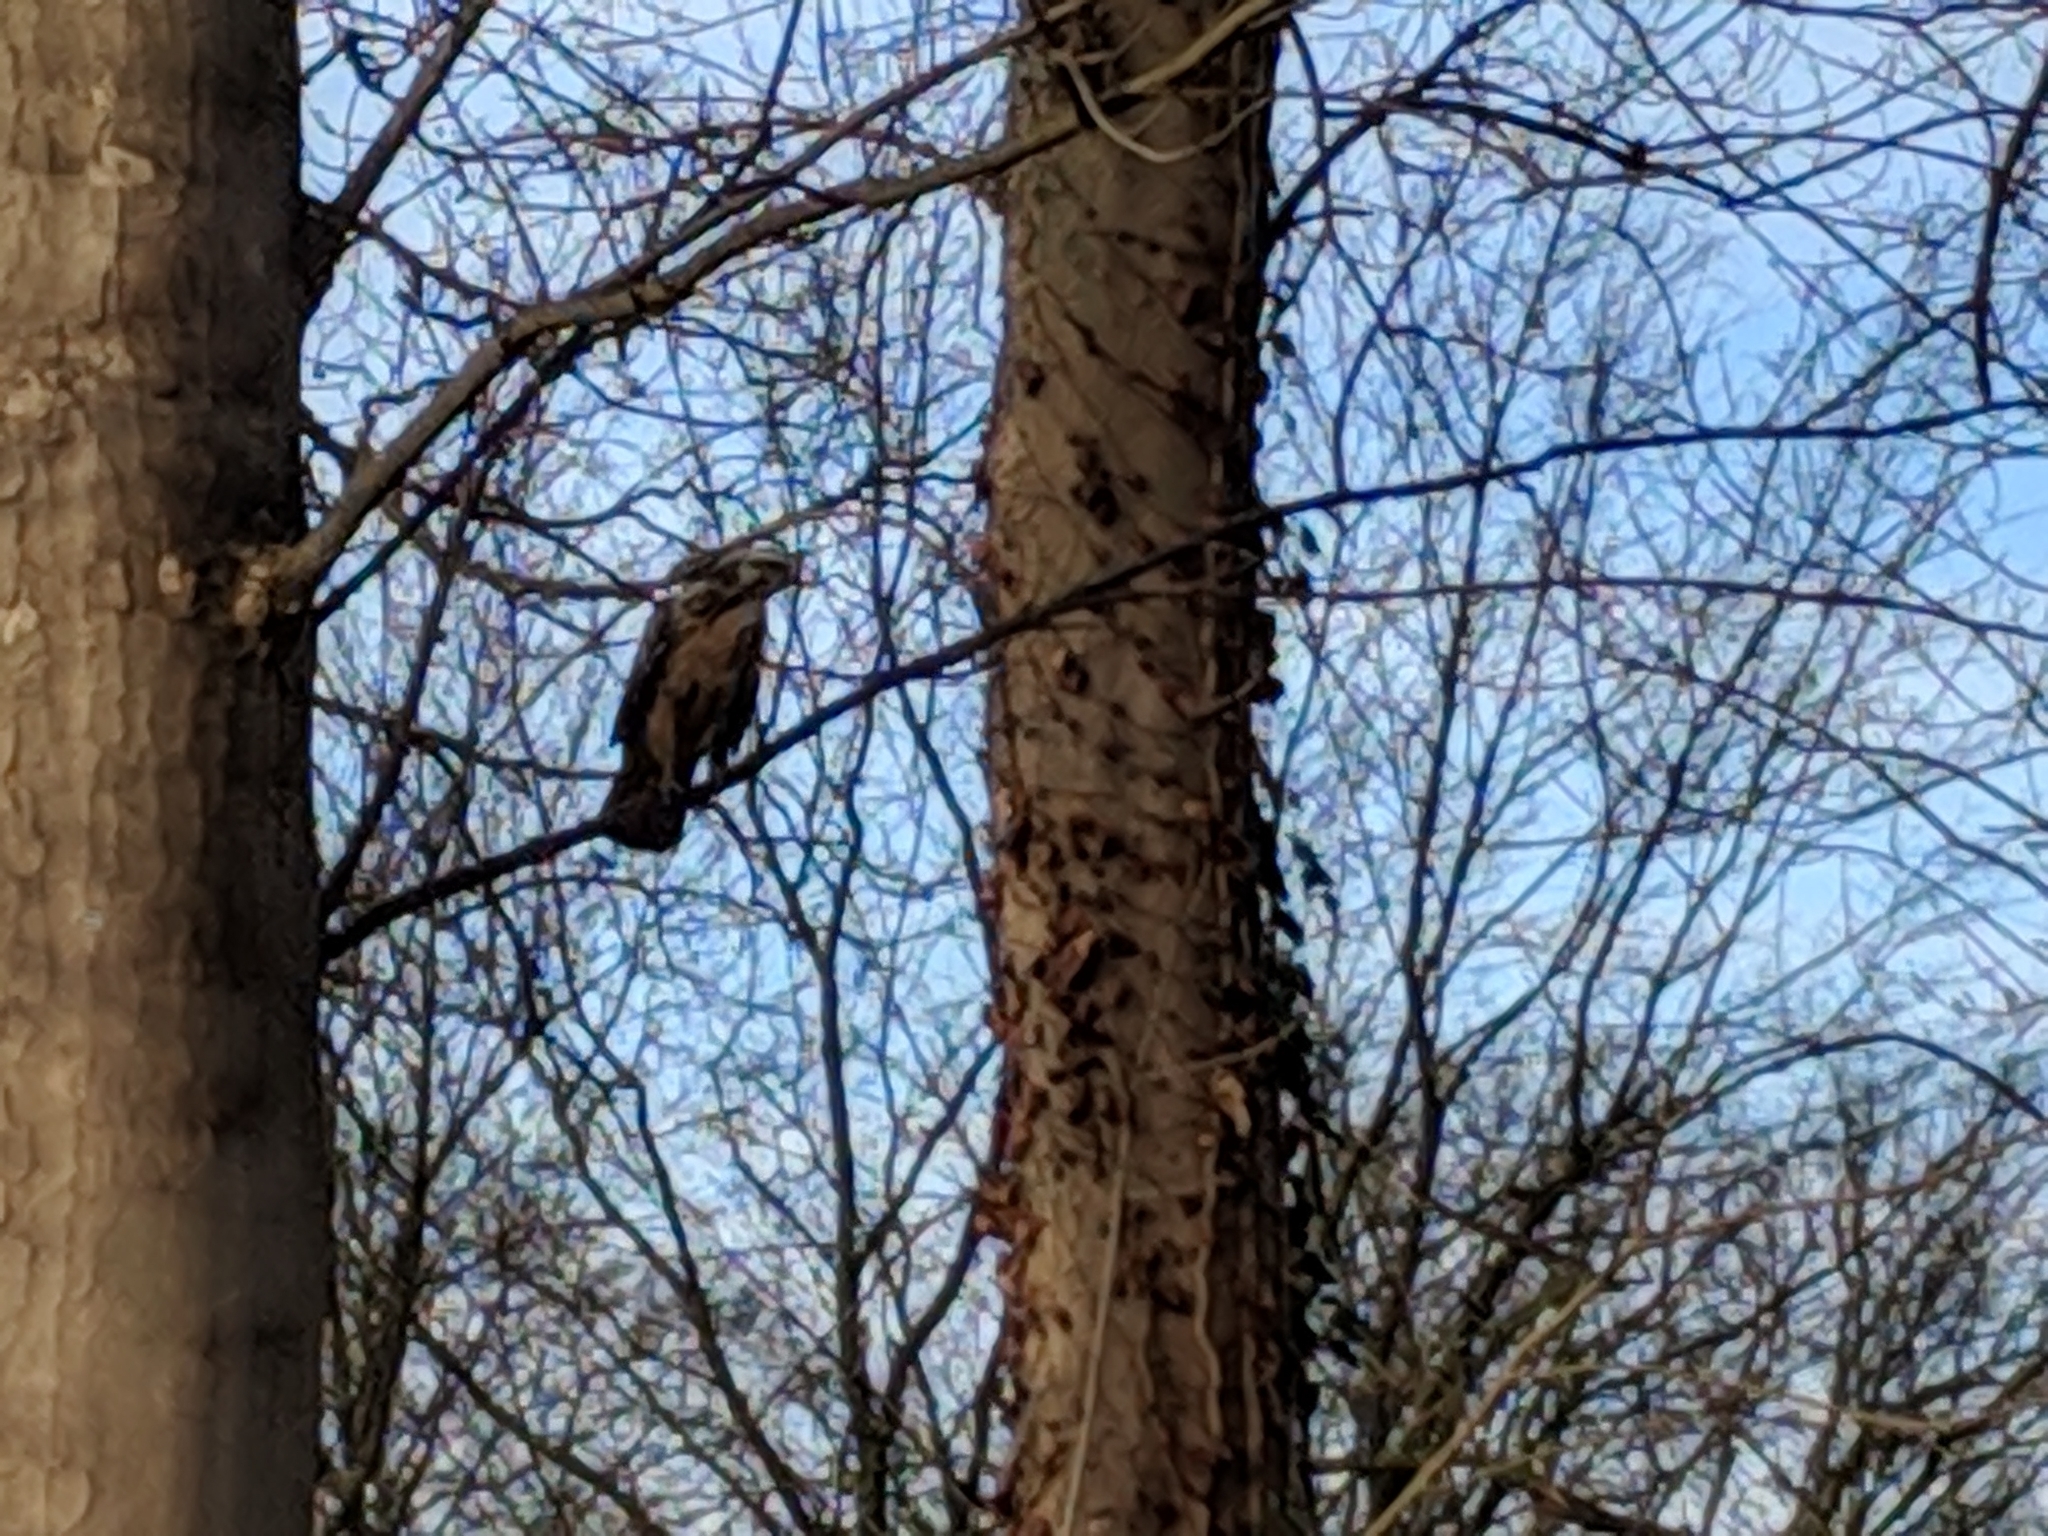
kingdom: Animalia
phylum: Chordata
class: Aves
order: Accipitriformes
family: Accipitridae
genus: Buteo
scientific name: Buteo buteo
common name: Common buzzard
